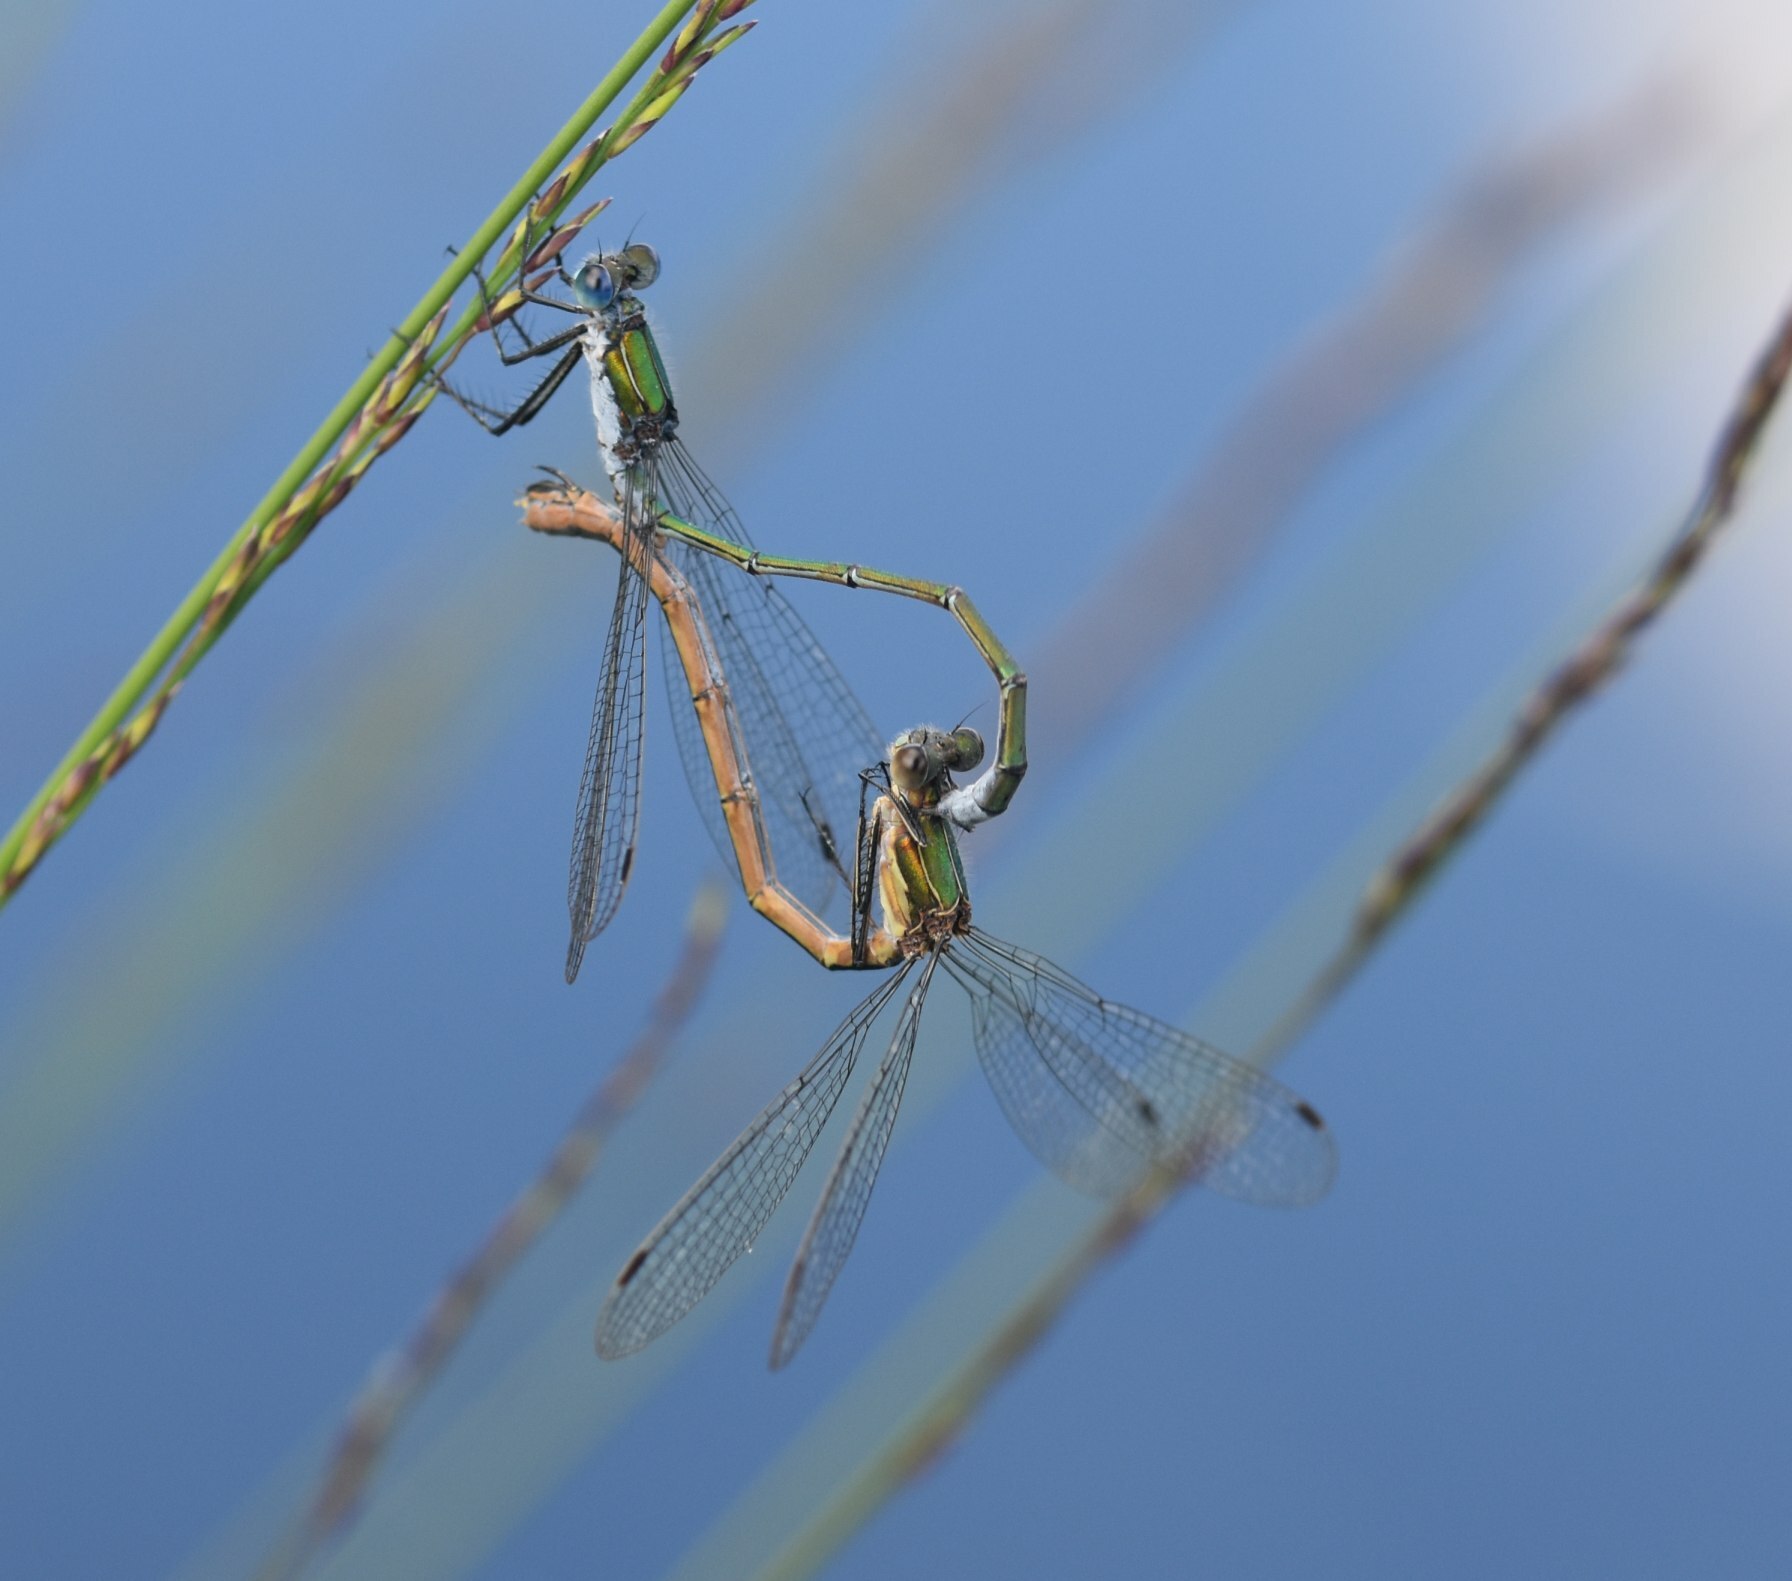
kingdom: Animalia
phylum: Arthropoda
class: Insecta
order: Odonata
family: Lestidae
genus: Lestes
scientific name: Lestes sponsa
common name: Common spreadwing
